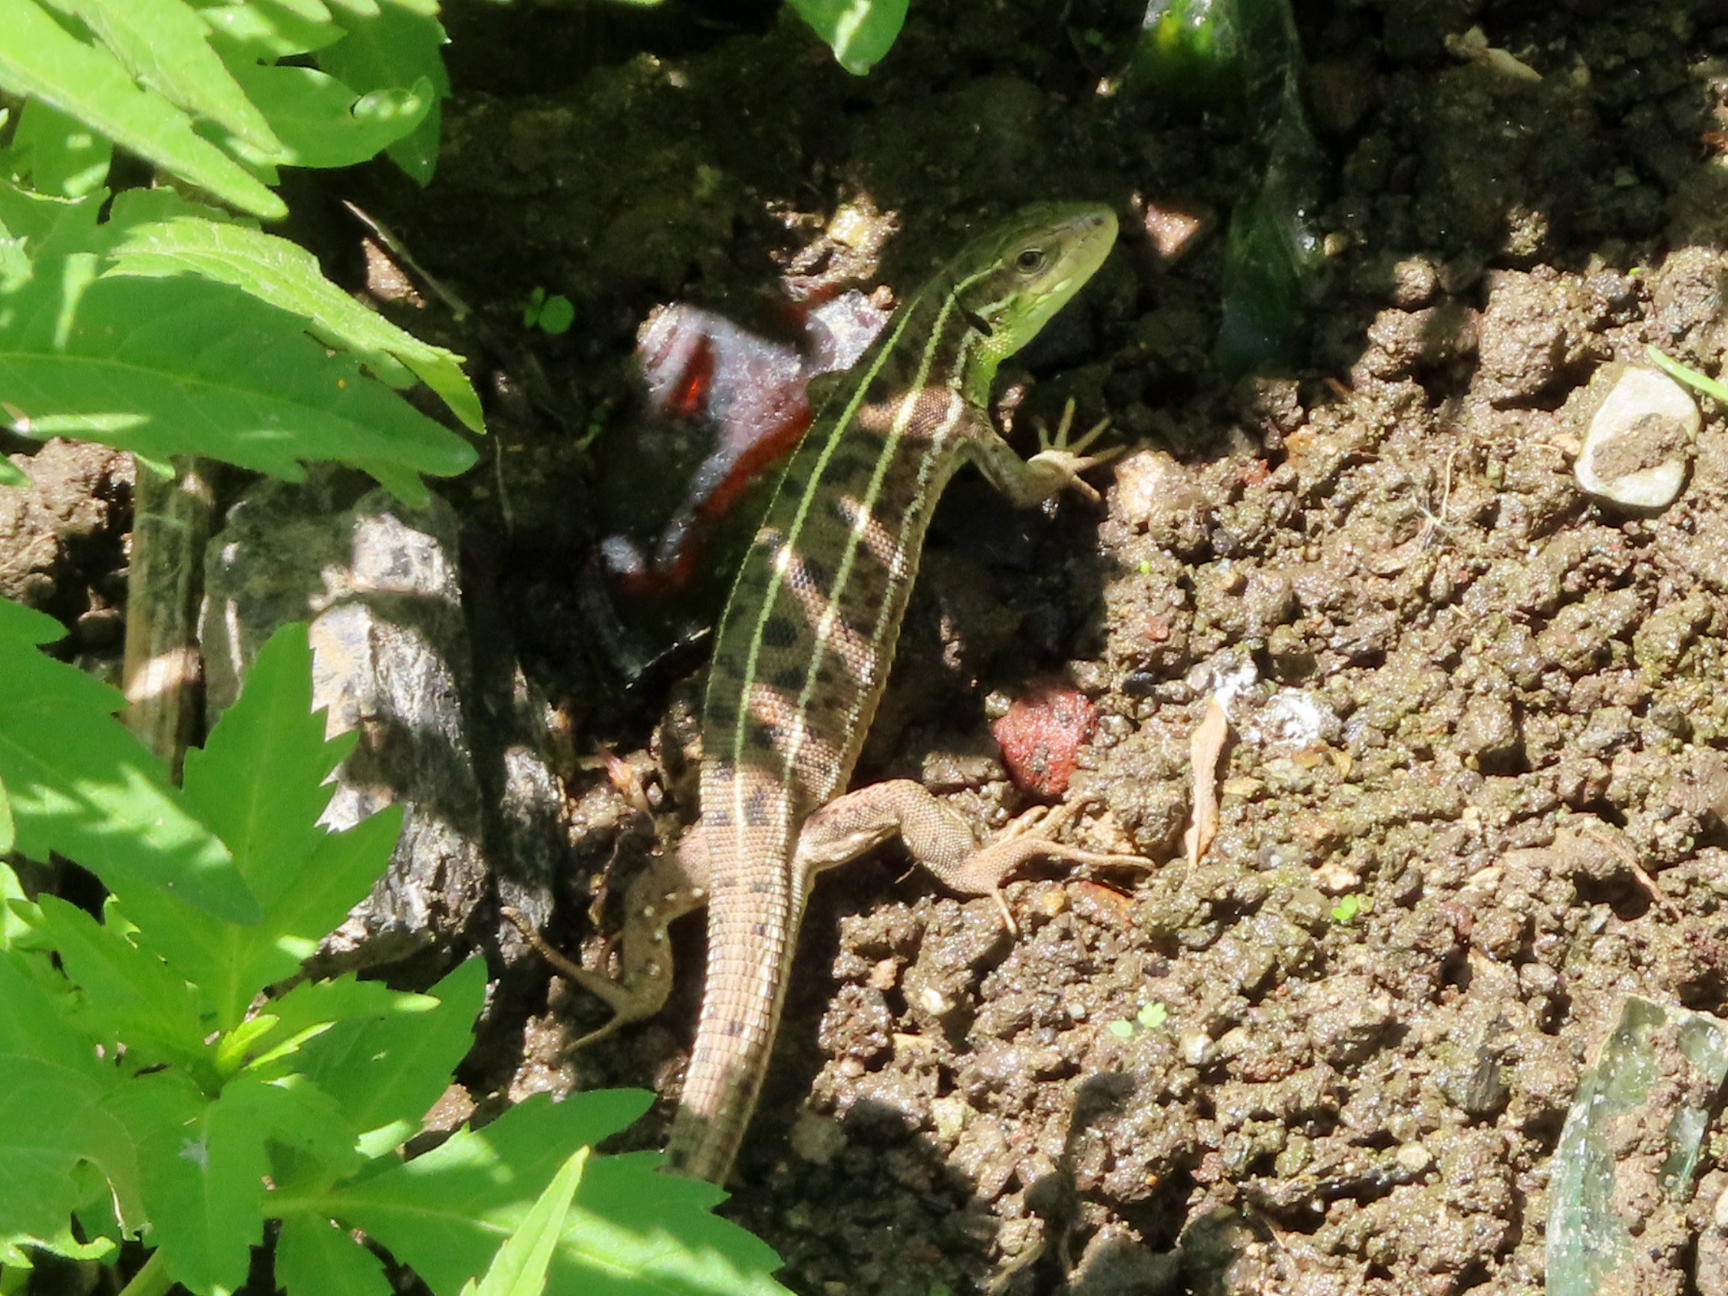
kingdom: Animalia
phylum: Chordata
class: Squamata
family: Lacertidae
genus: Lacerta
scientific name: Lacerta strigata
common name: Caspian green lizard
